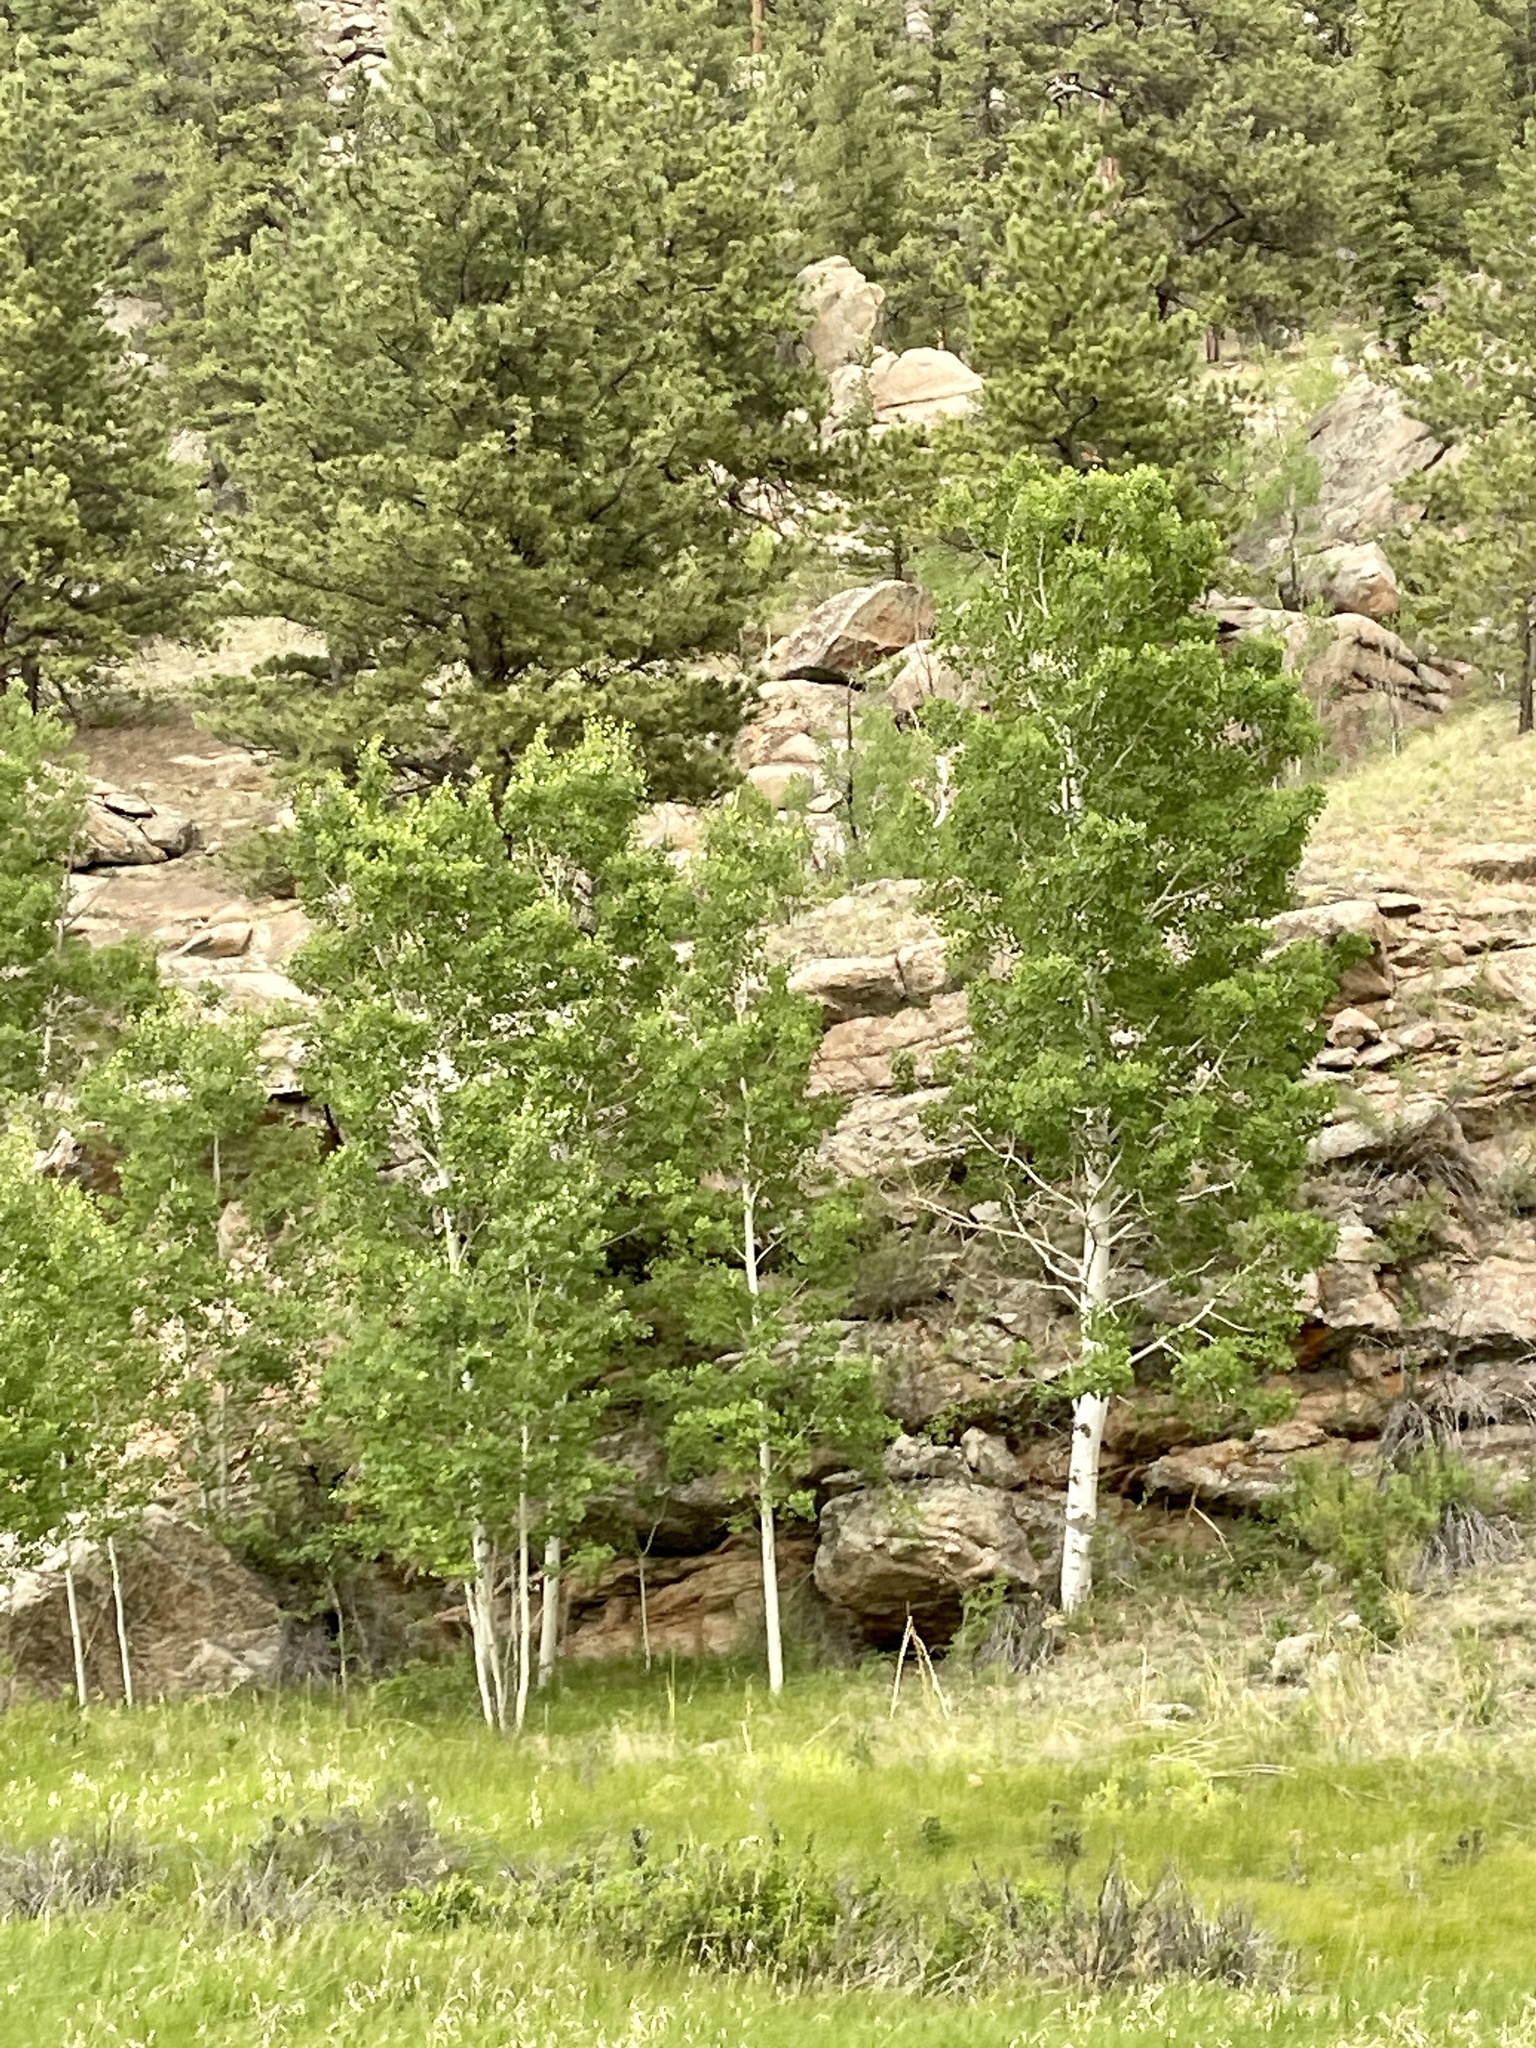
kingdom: Plantae
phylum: Tracheophyta
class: Magnoliopsida
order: Malpighiales
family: Salicaceae
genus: Populus
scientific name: Populus tremuloides
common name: Quaking aspen
